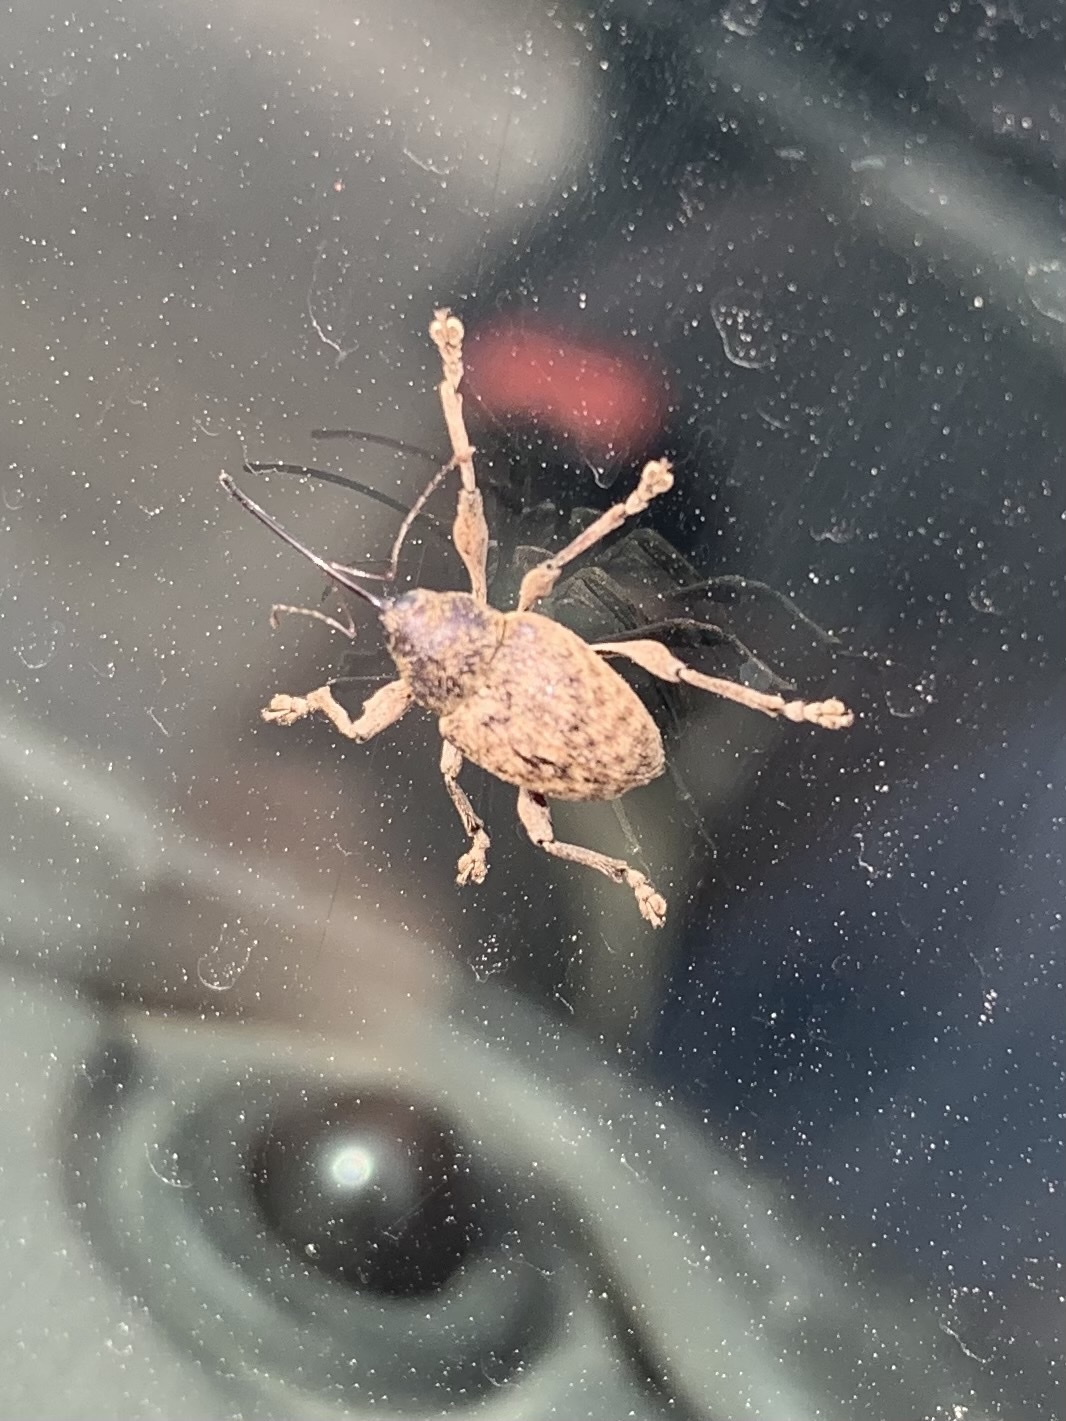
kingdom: Animalia
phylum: Arthropoda
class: Insecta
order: Coleoptera
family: Curculionidae
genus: Curculio
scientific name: Curculio
